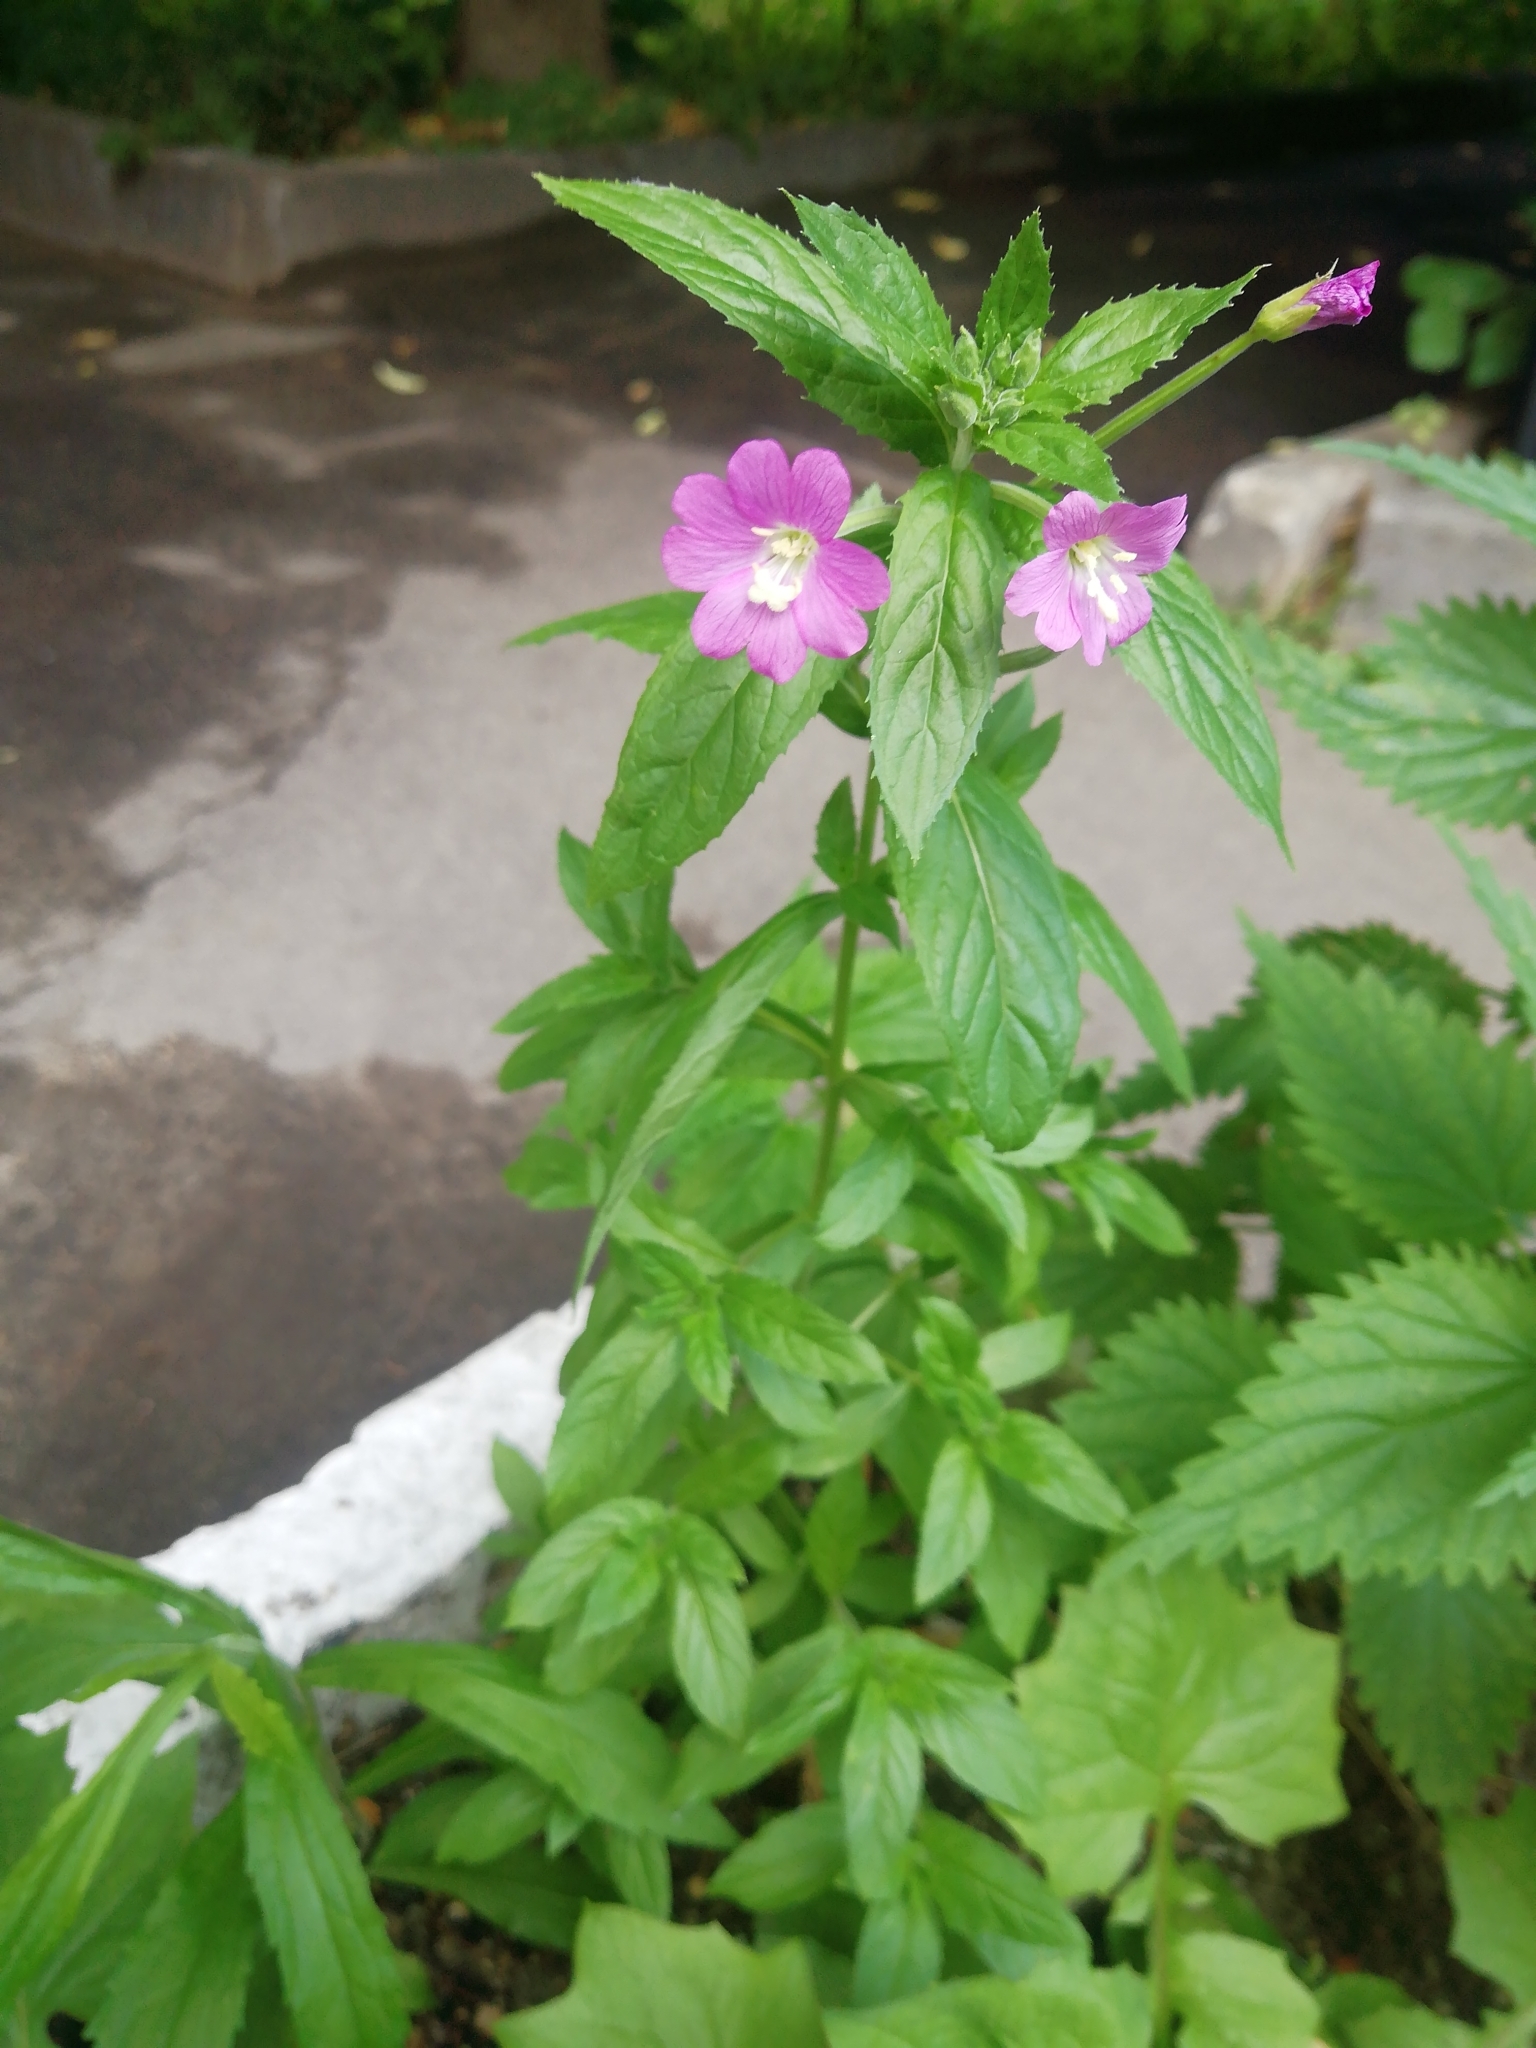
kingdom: Plantae
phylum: Tracheophyta
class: Magnoliopsida
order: Myrtales
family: Onagraceae
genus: Epilobium
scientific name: Epilobium hirsutum
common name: Great willowherb
